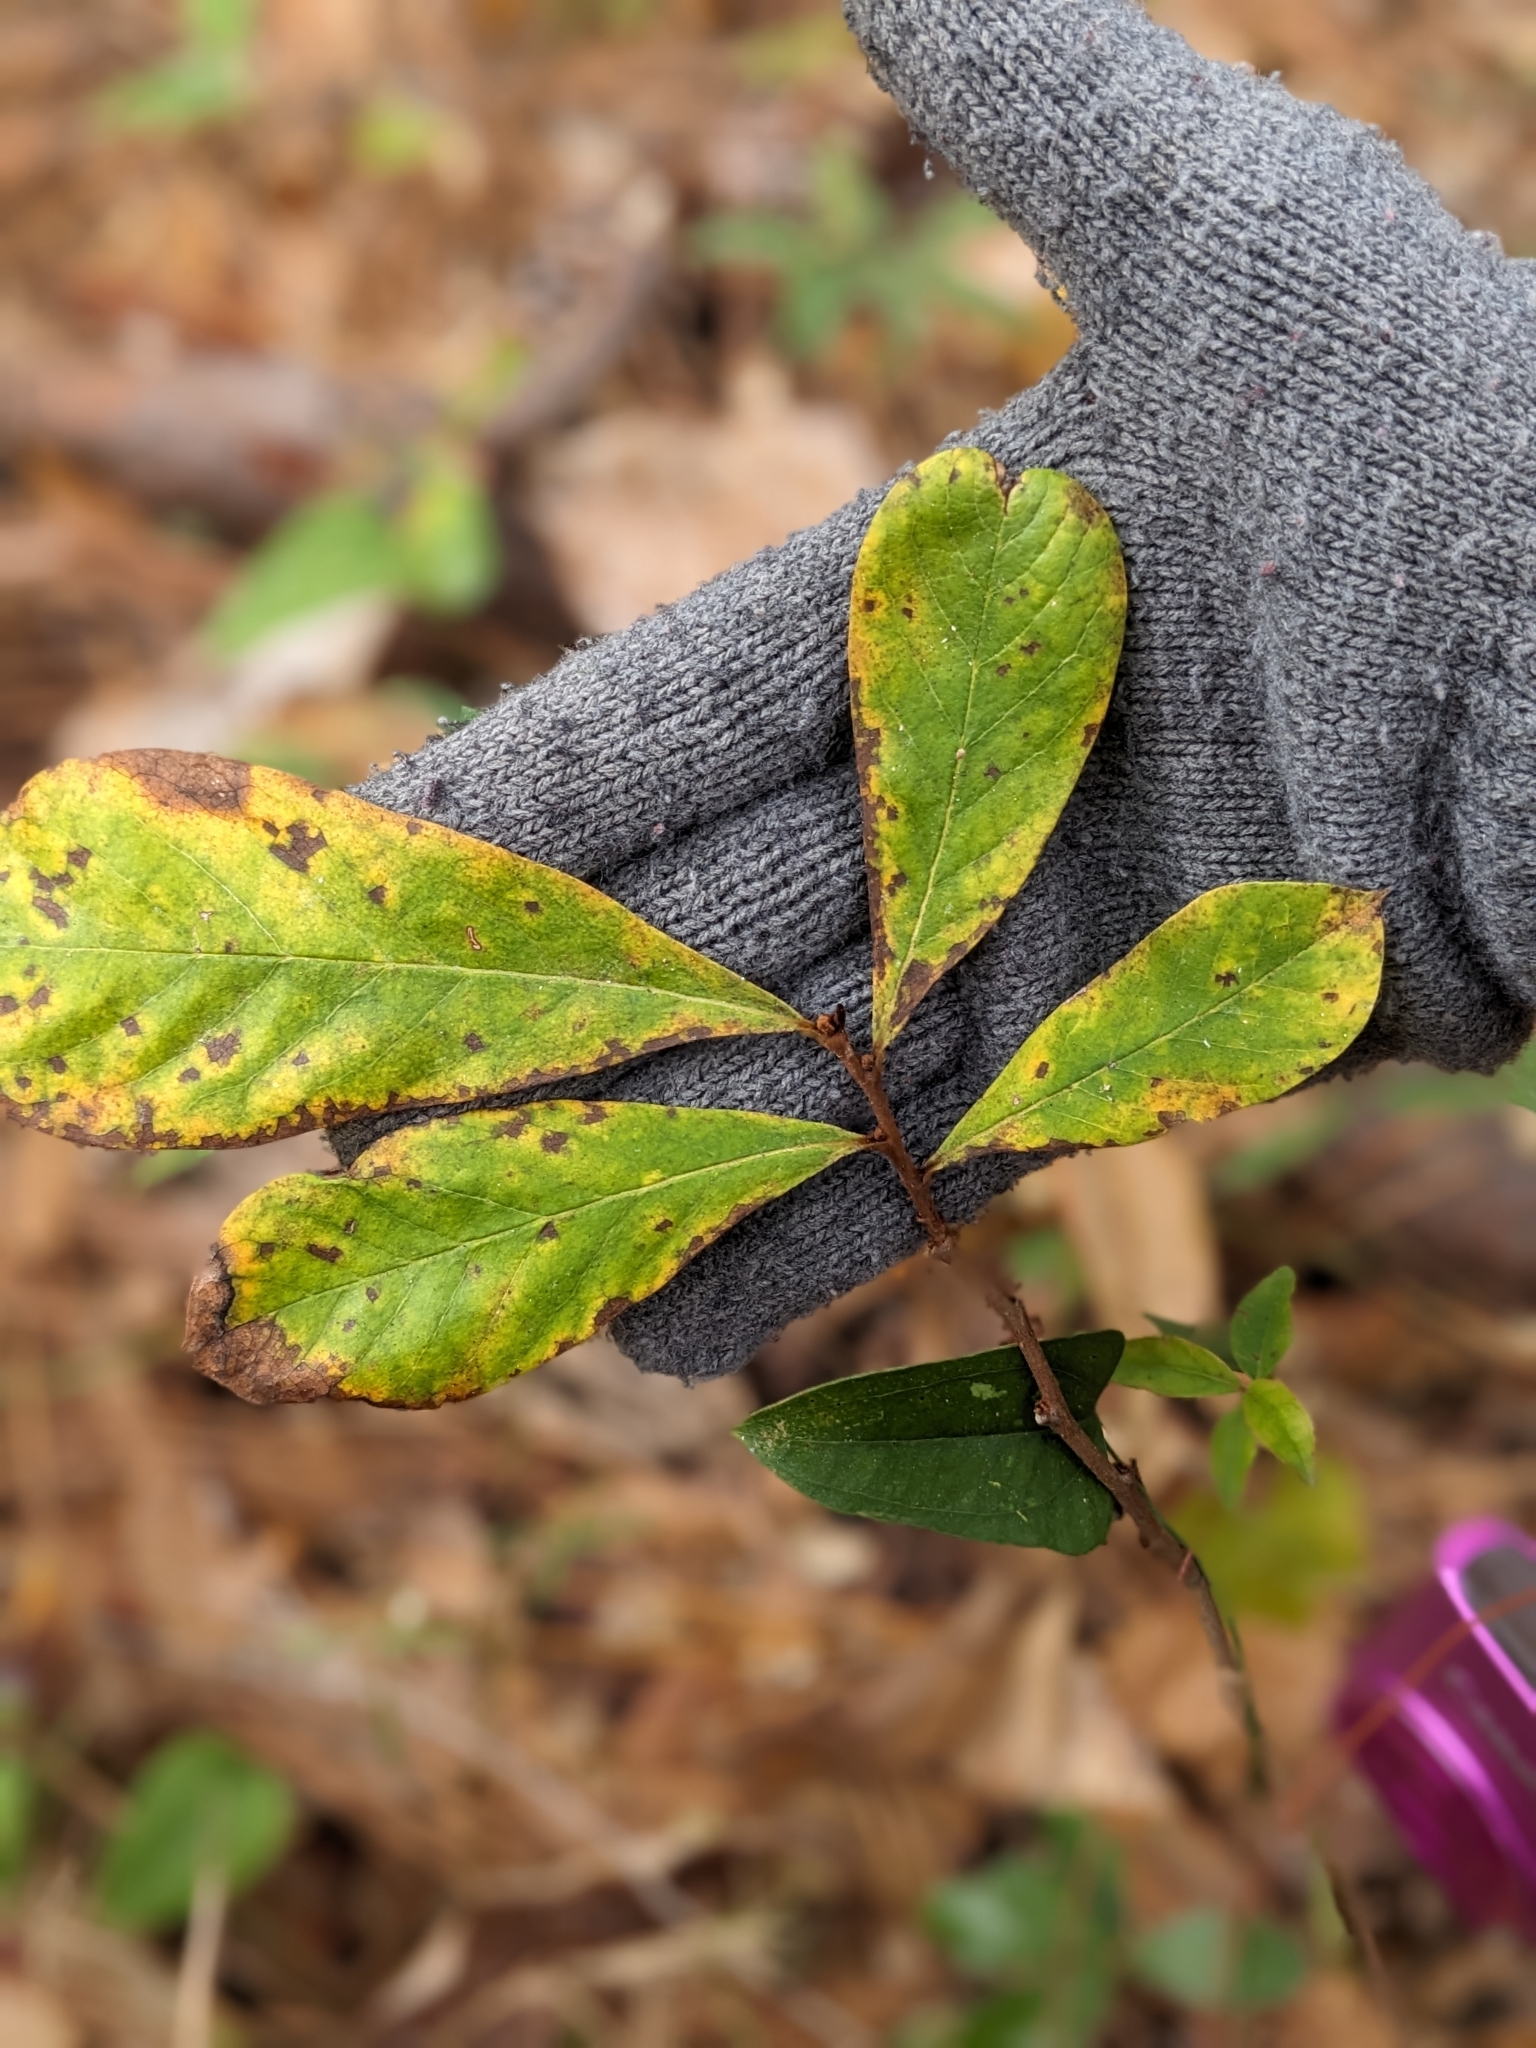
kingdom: Plantae
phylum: Tracheophyta
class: Magnoliopsida
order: Magnoliales
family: Annonaceae
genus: Asimina
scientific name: Asimina parviflora
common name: Dwarf pawpaw
